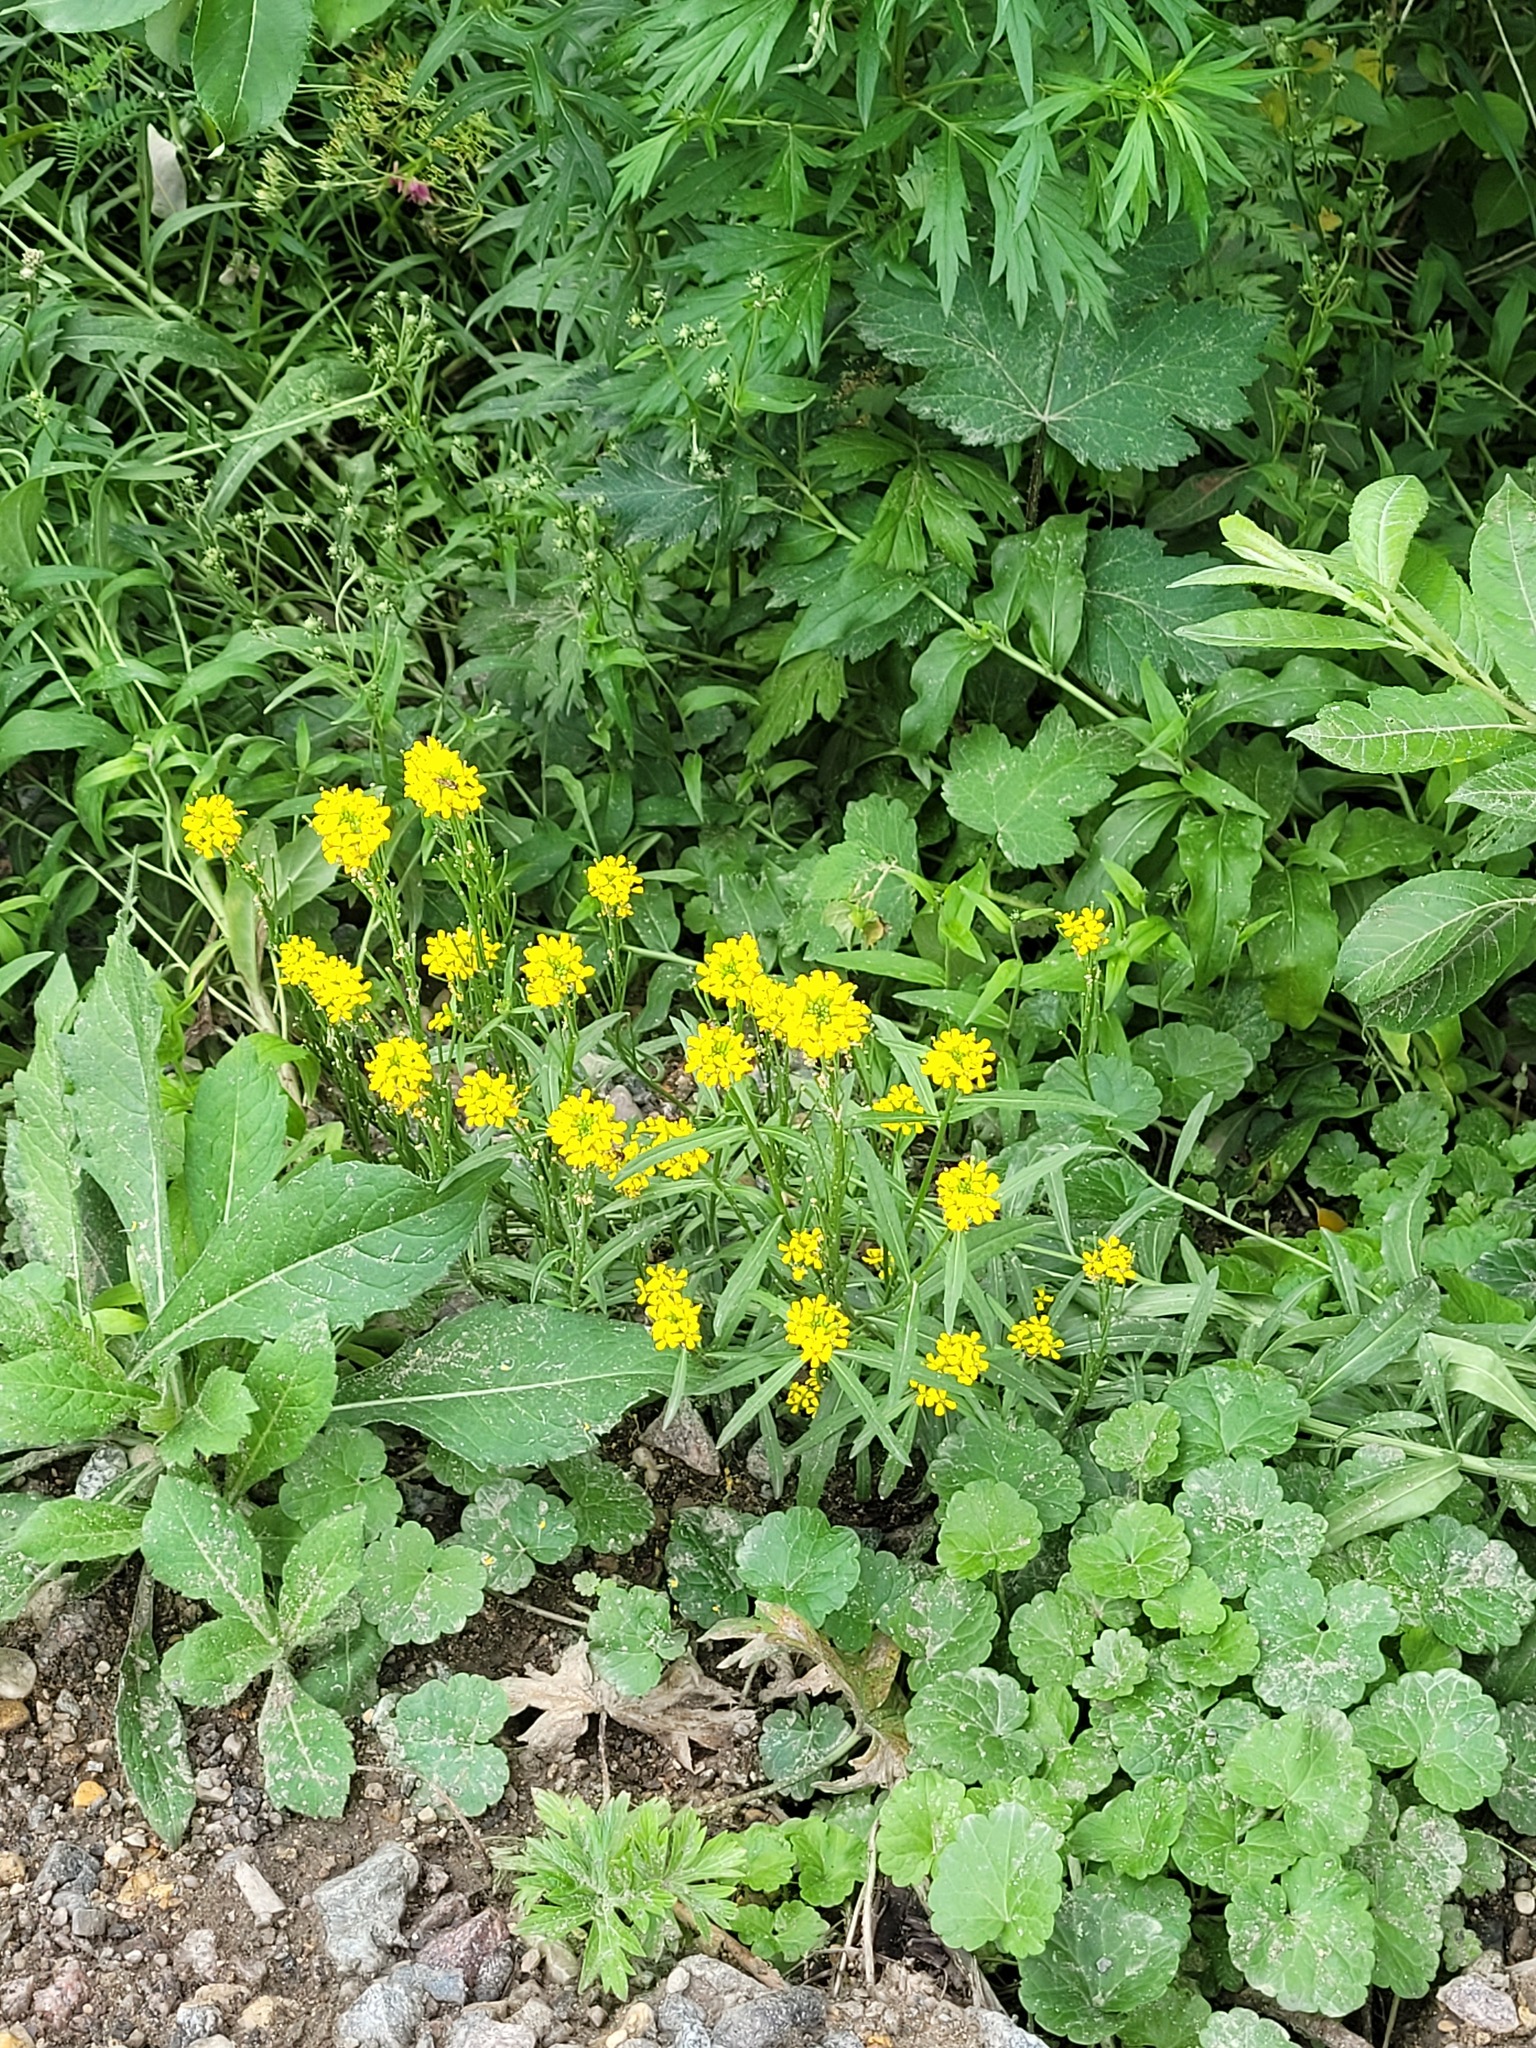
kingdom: Plantae
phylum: Tracheophyta
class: Magnoliopsida
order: Brassicales
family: Brassicaceae
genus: Erysimum
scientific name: Erysimum hieraciifolium
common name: European wallflower
